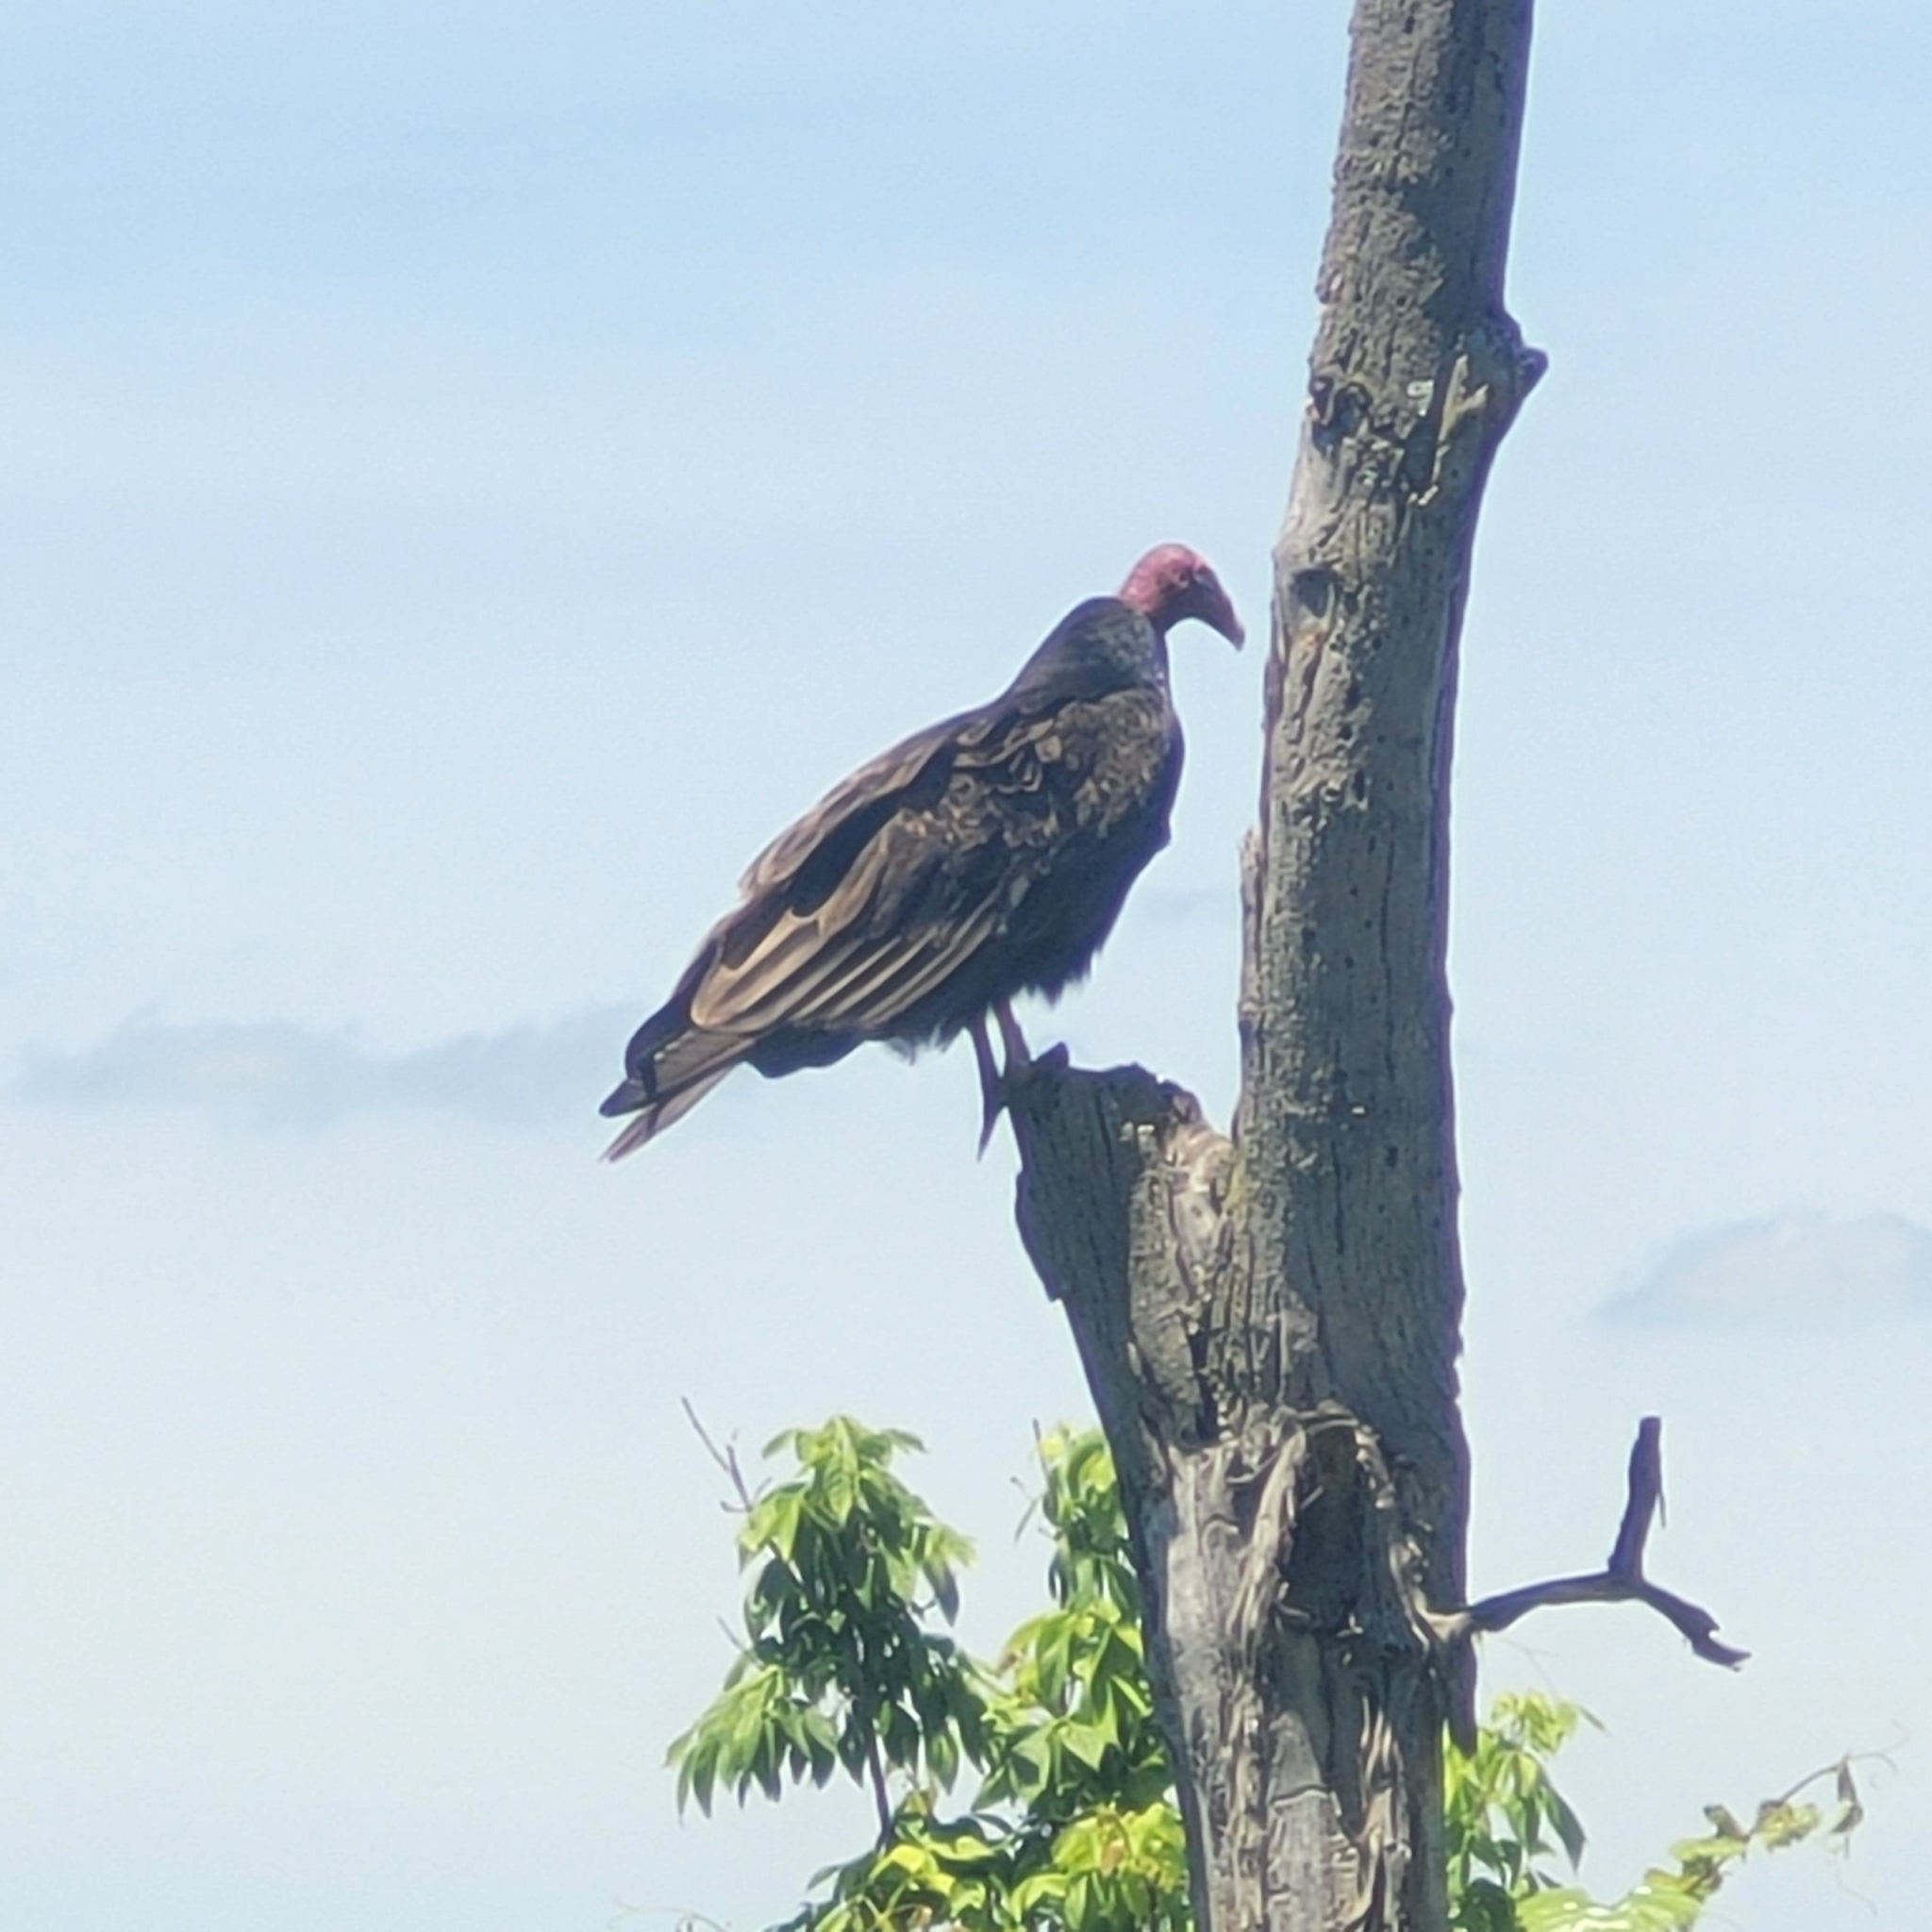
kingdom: Animalia
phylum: Chordata
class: Aves
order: Accipitriformes
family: Cathartidae
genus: Cathartes
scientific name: Cathartes aura
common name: Turkey vulture
